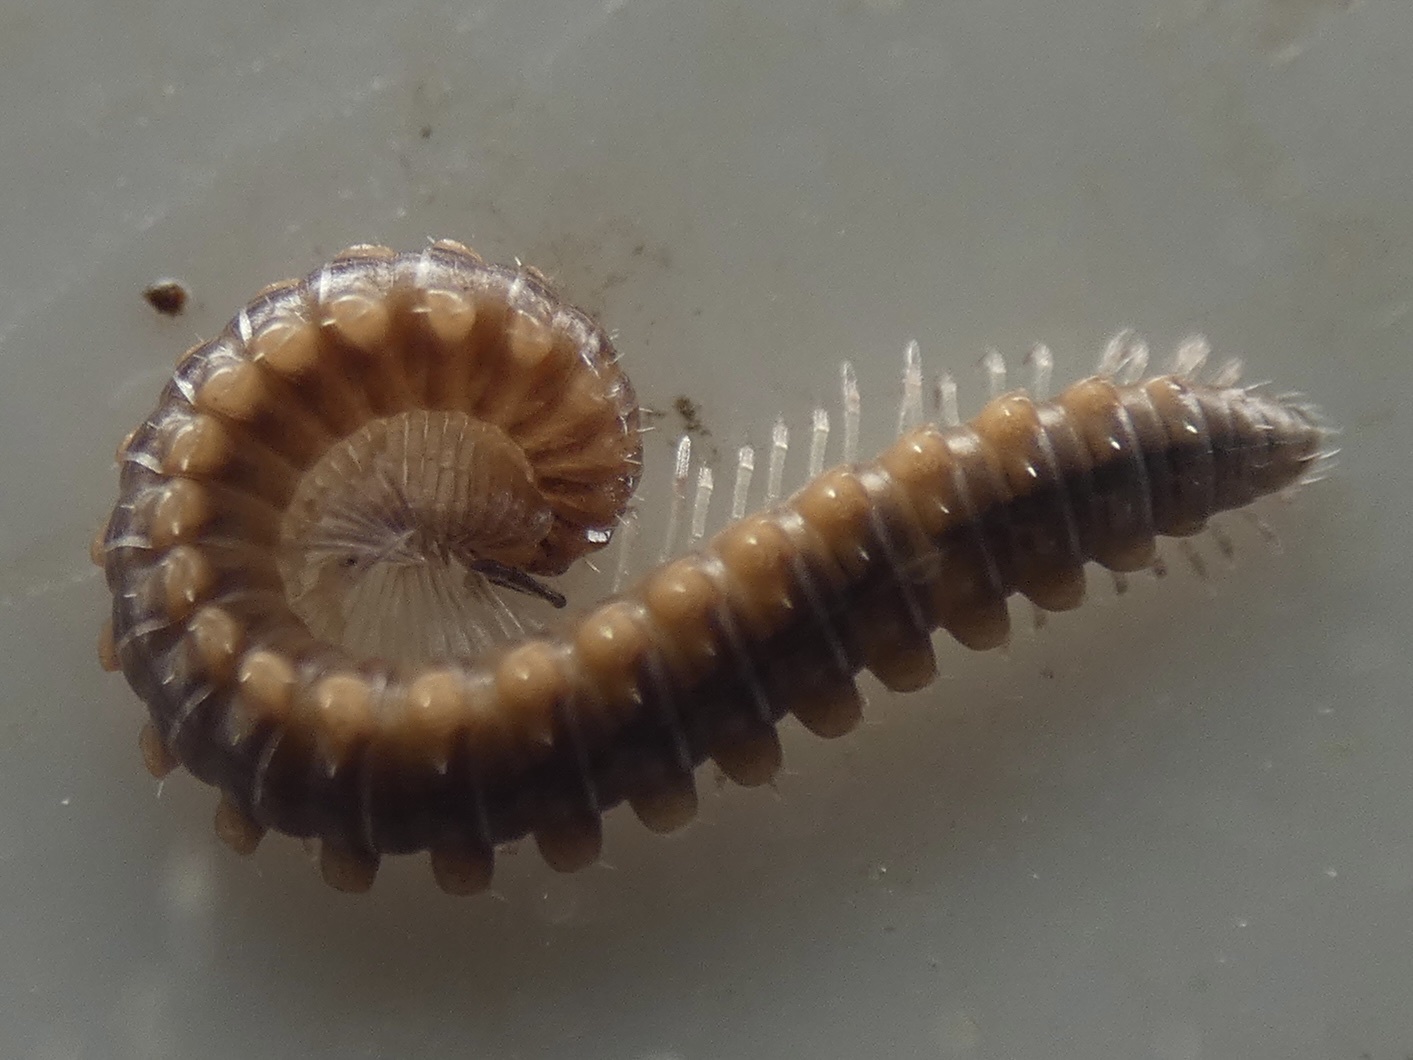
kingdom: Animalia
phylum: Arthropoda
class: Diplopoda
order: Chordeumatida
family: Craspedosomatidae
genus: Nanogona
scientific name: Nanogona polydesmoides
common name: Eyed flat-backed millipede
